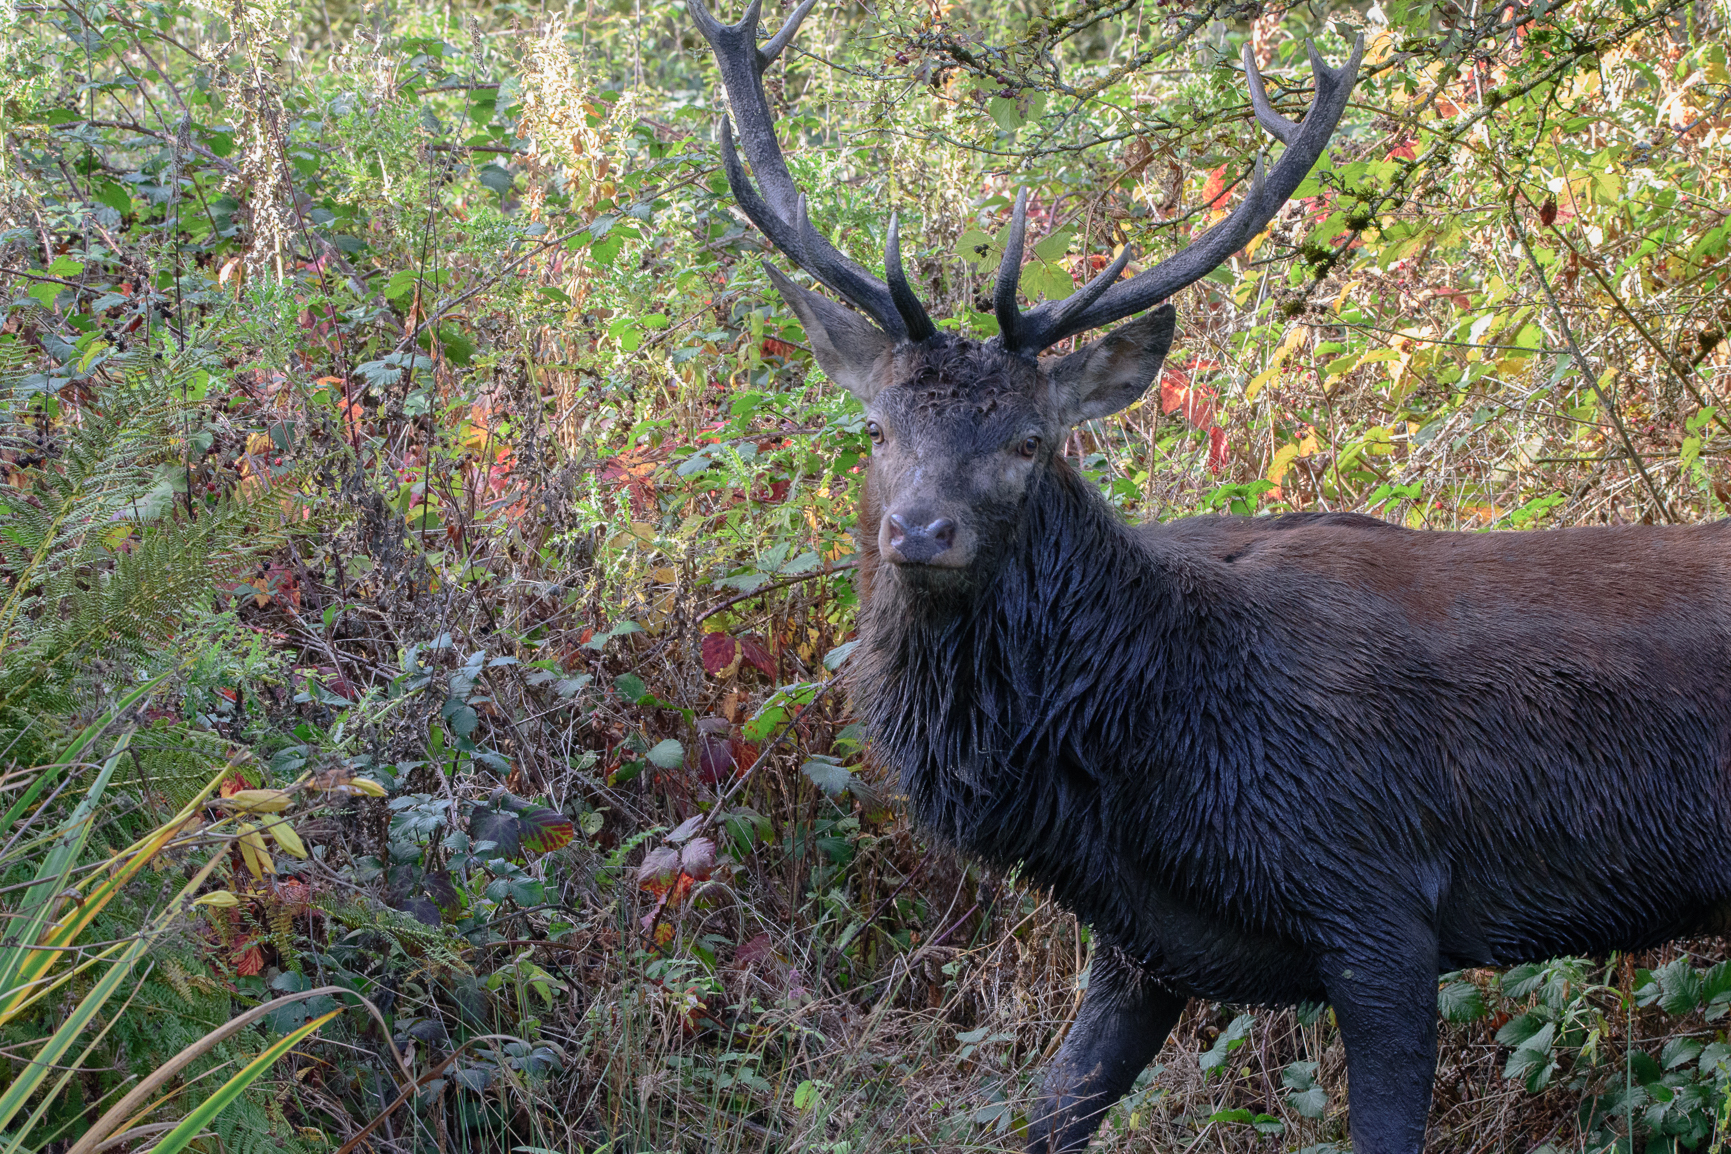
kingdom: Animalia
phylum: Chordata
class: Mammalia
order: Artiodactyla
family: Cervidae
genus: Cervus
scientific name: Cervus elaphus
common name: Red deer
